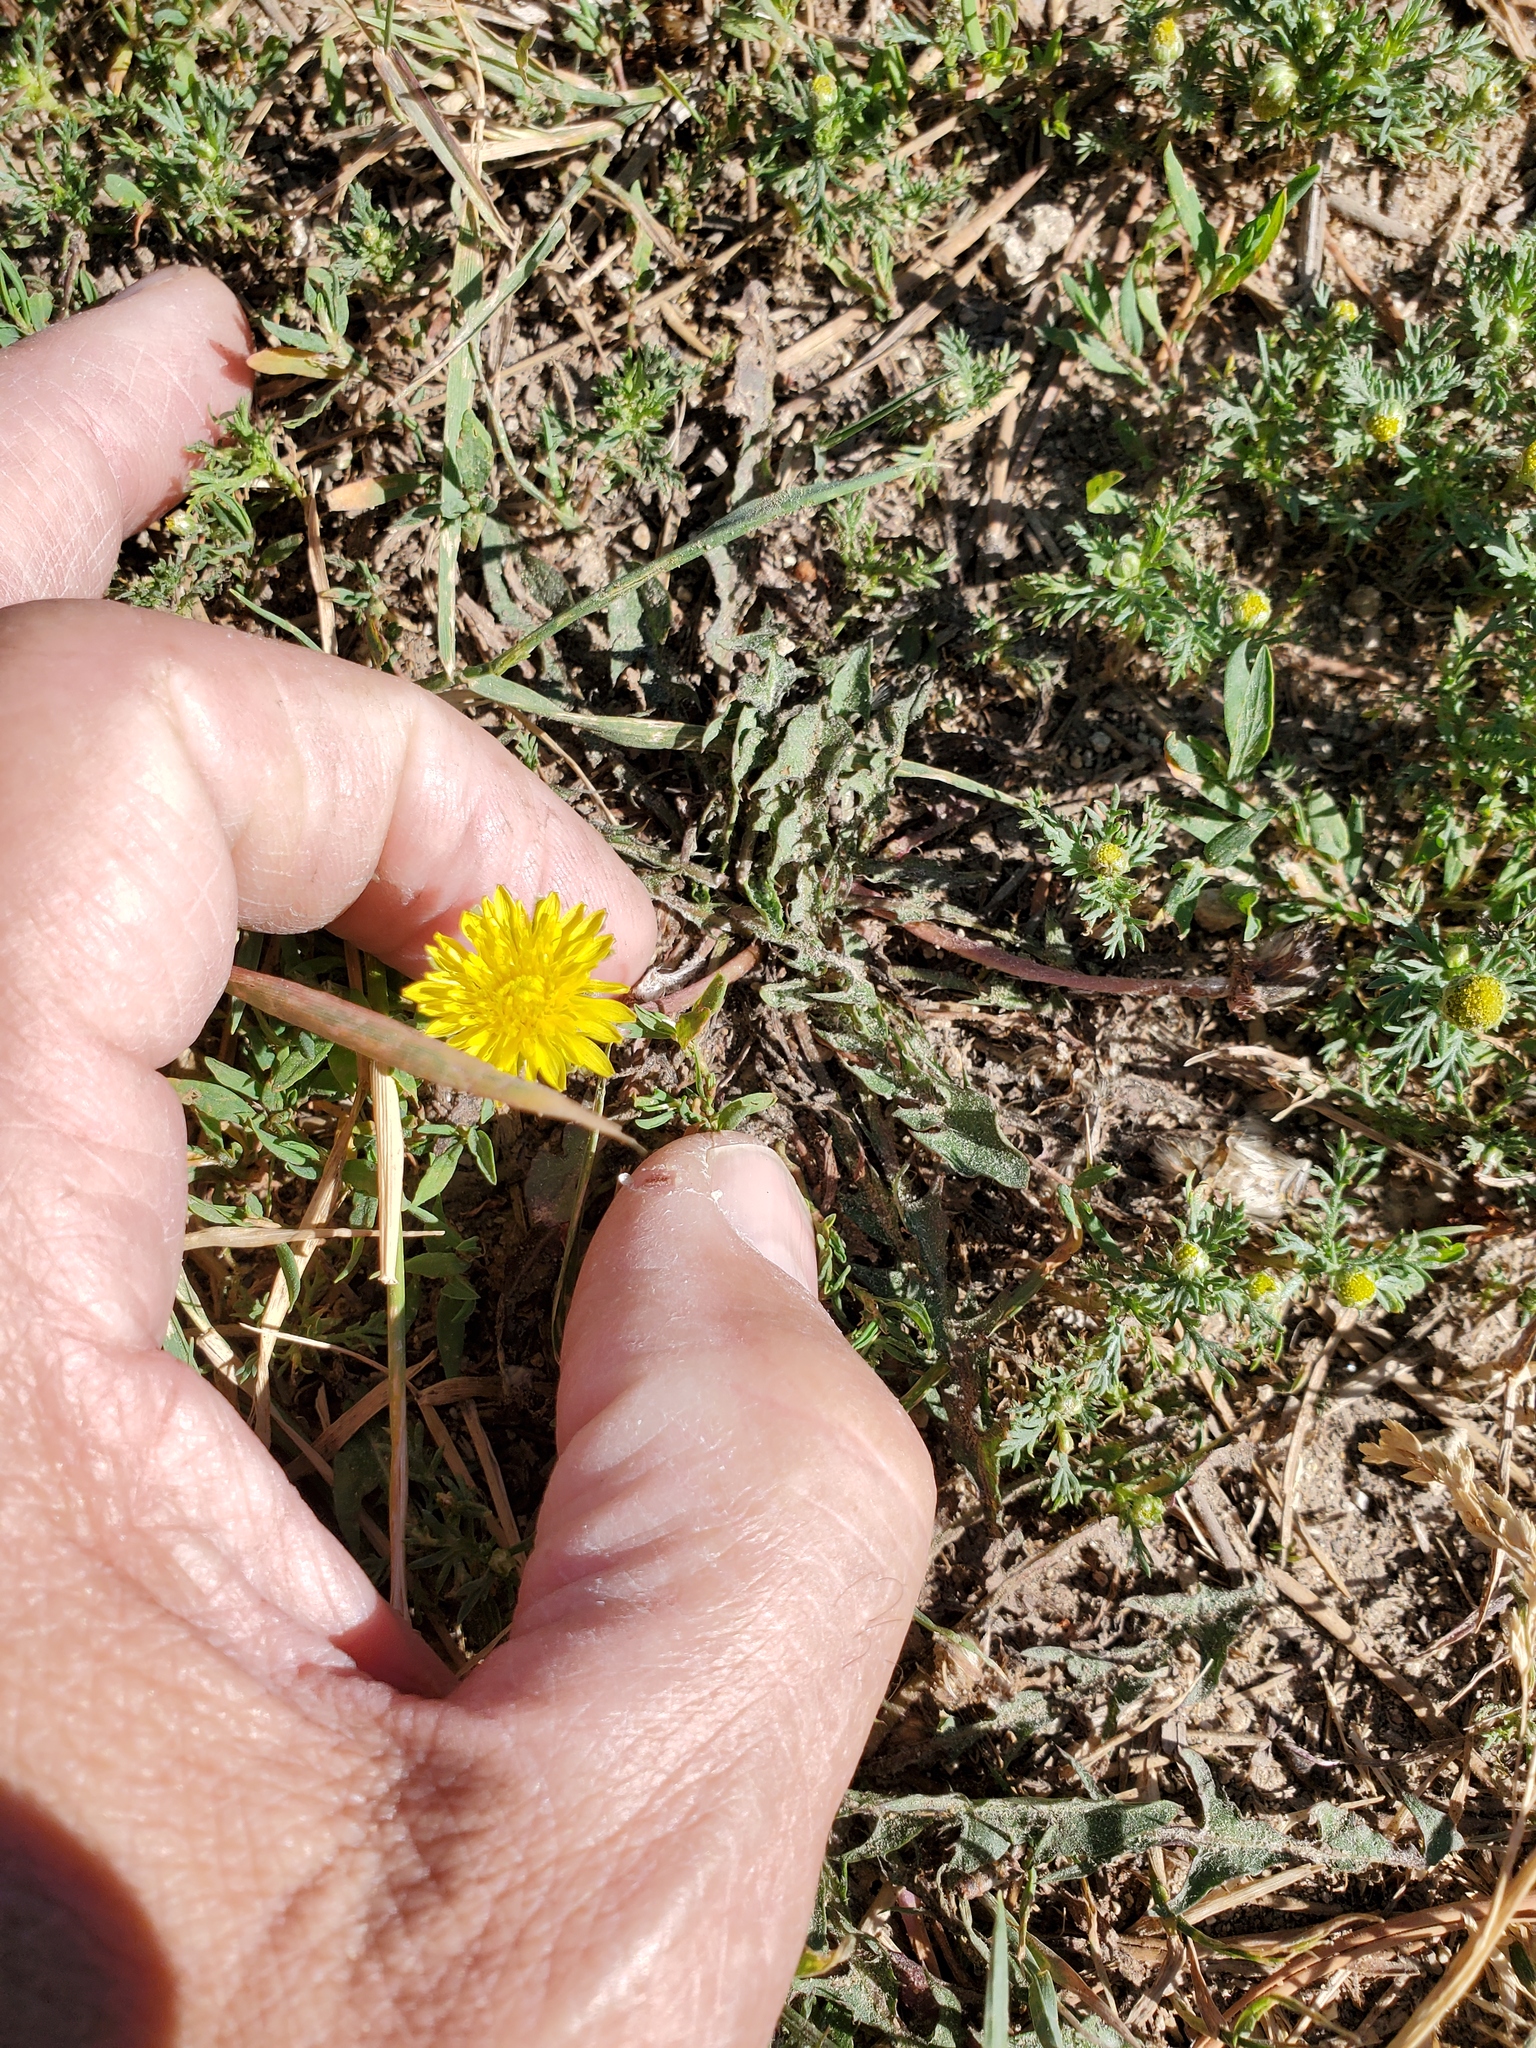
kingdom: Plantae
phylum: Tracheophyta
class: Magnoliopsida
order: Asterales
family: Asteraceae
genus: Taraxacum
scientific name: Taraxacum officinale
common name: Common dandelion
